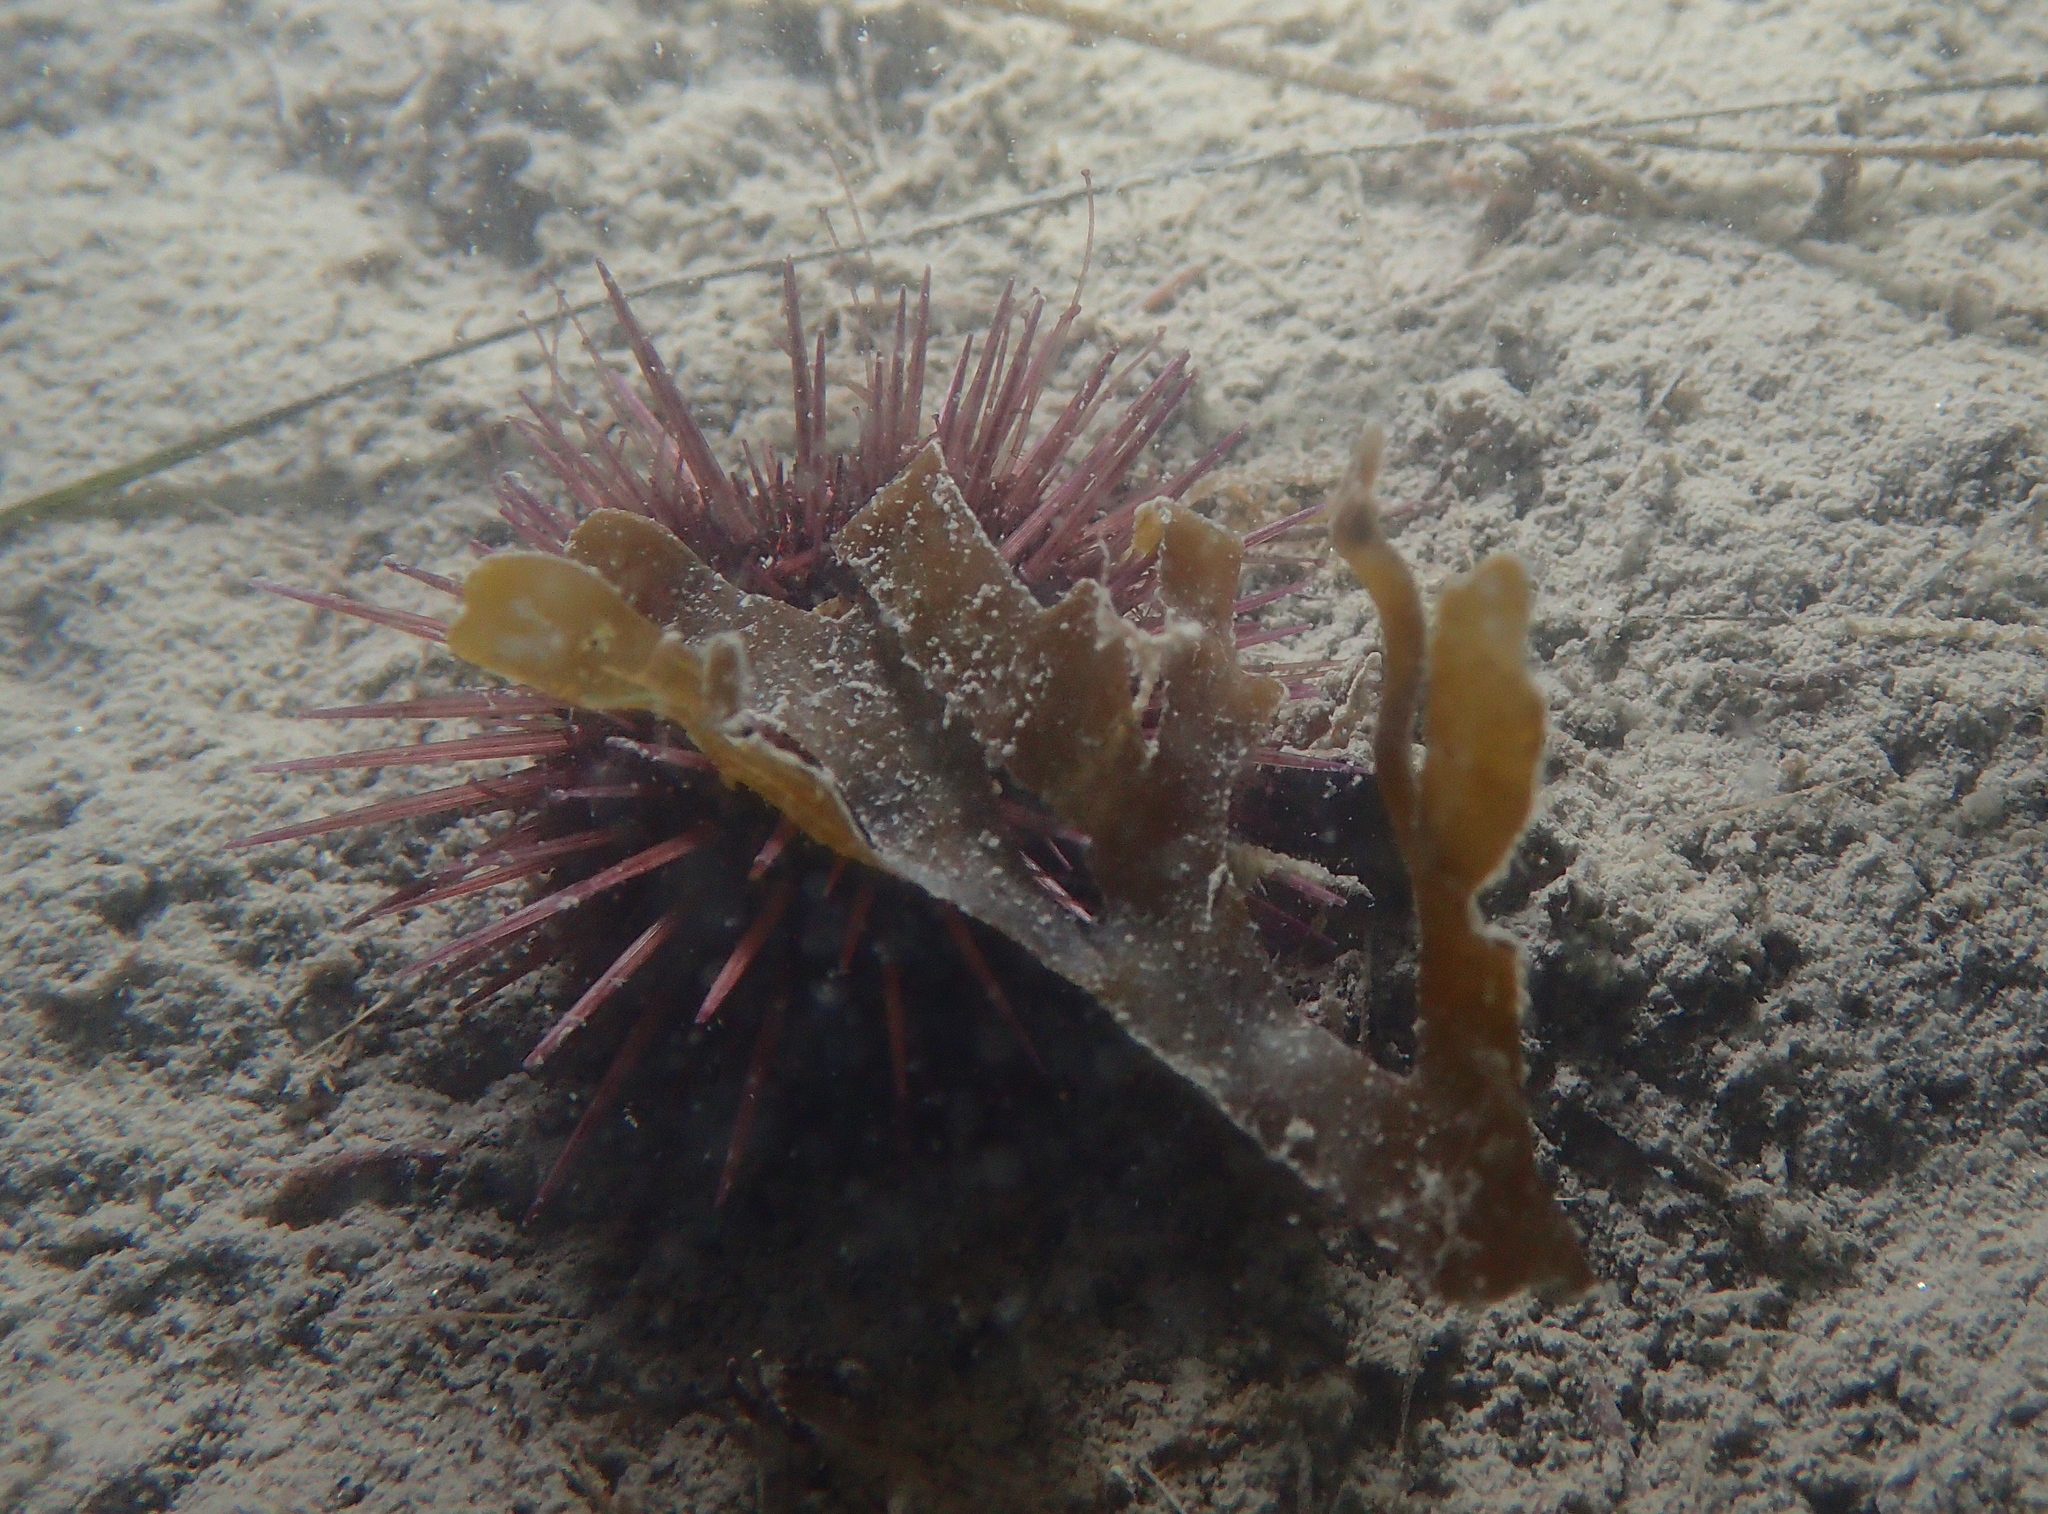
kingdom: Animalia
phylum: Echinodermata
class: Echinoidea
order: Camarodonta
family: Parechinidae
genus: Paracentrotus
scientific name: Paracentrotus lividus
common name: Purple sea urchin
